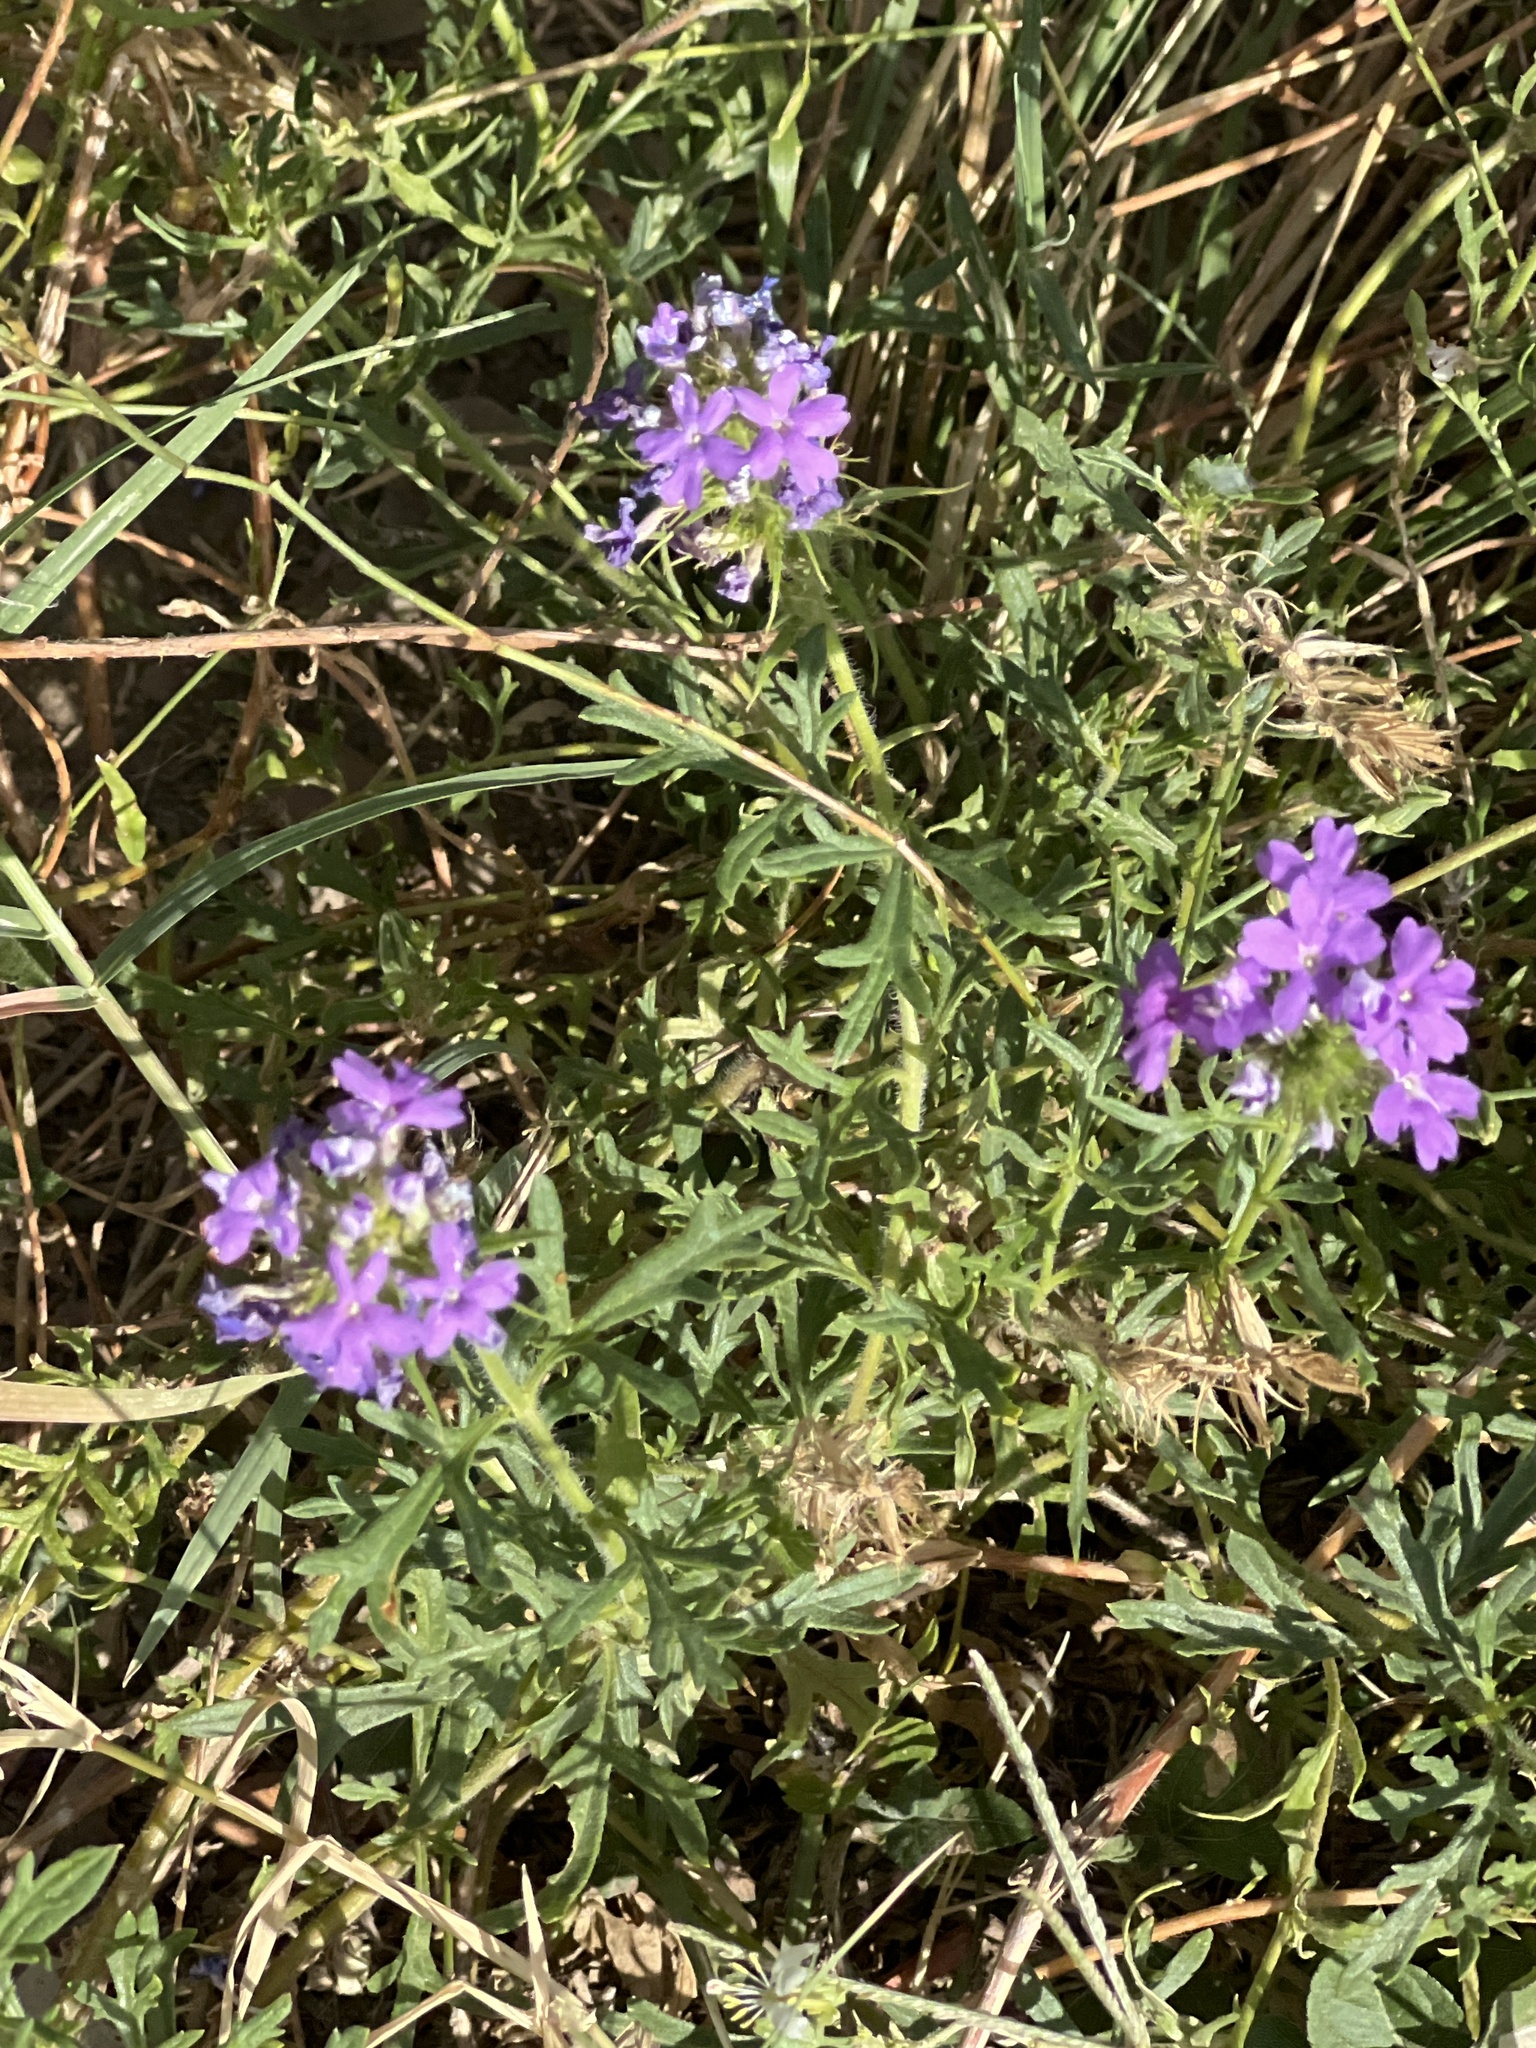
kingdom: Plantae
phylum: Tracheophyta
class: Magnoliopsida
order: Lamiales
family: Verbenaceae
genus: Verbena
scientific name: Verbena bipinnatifida
